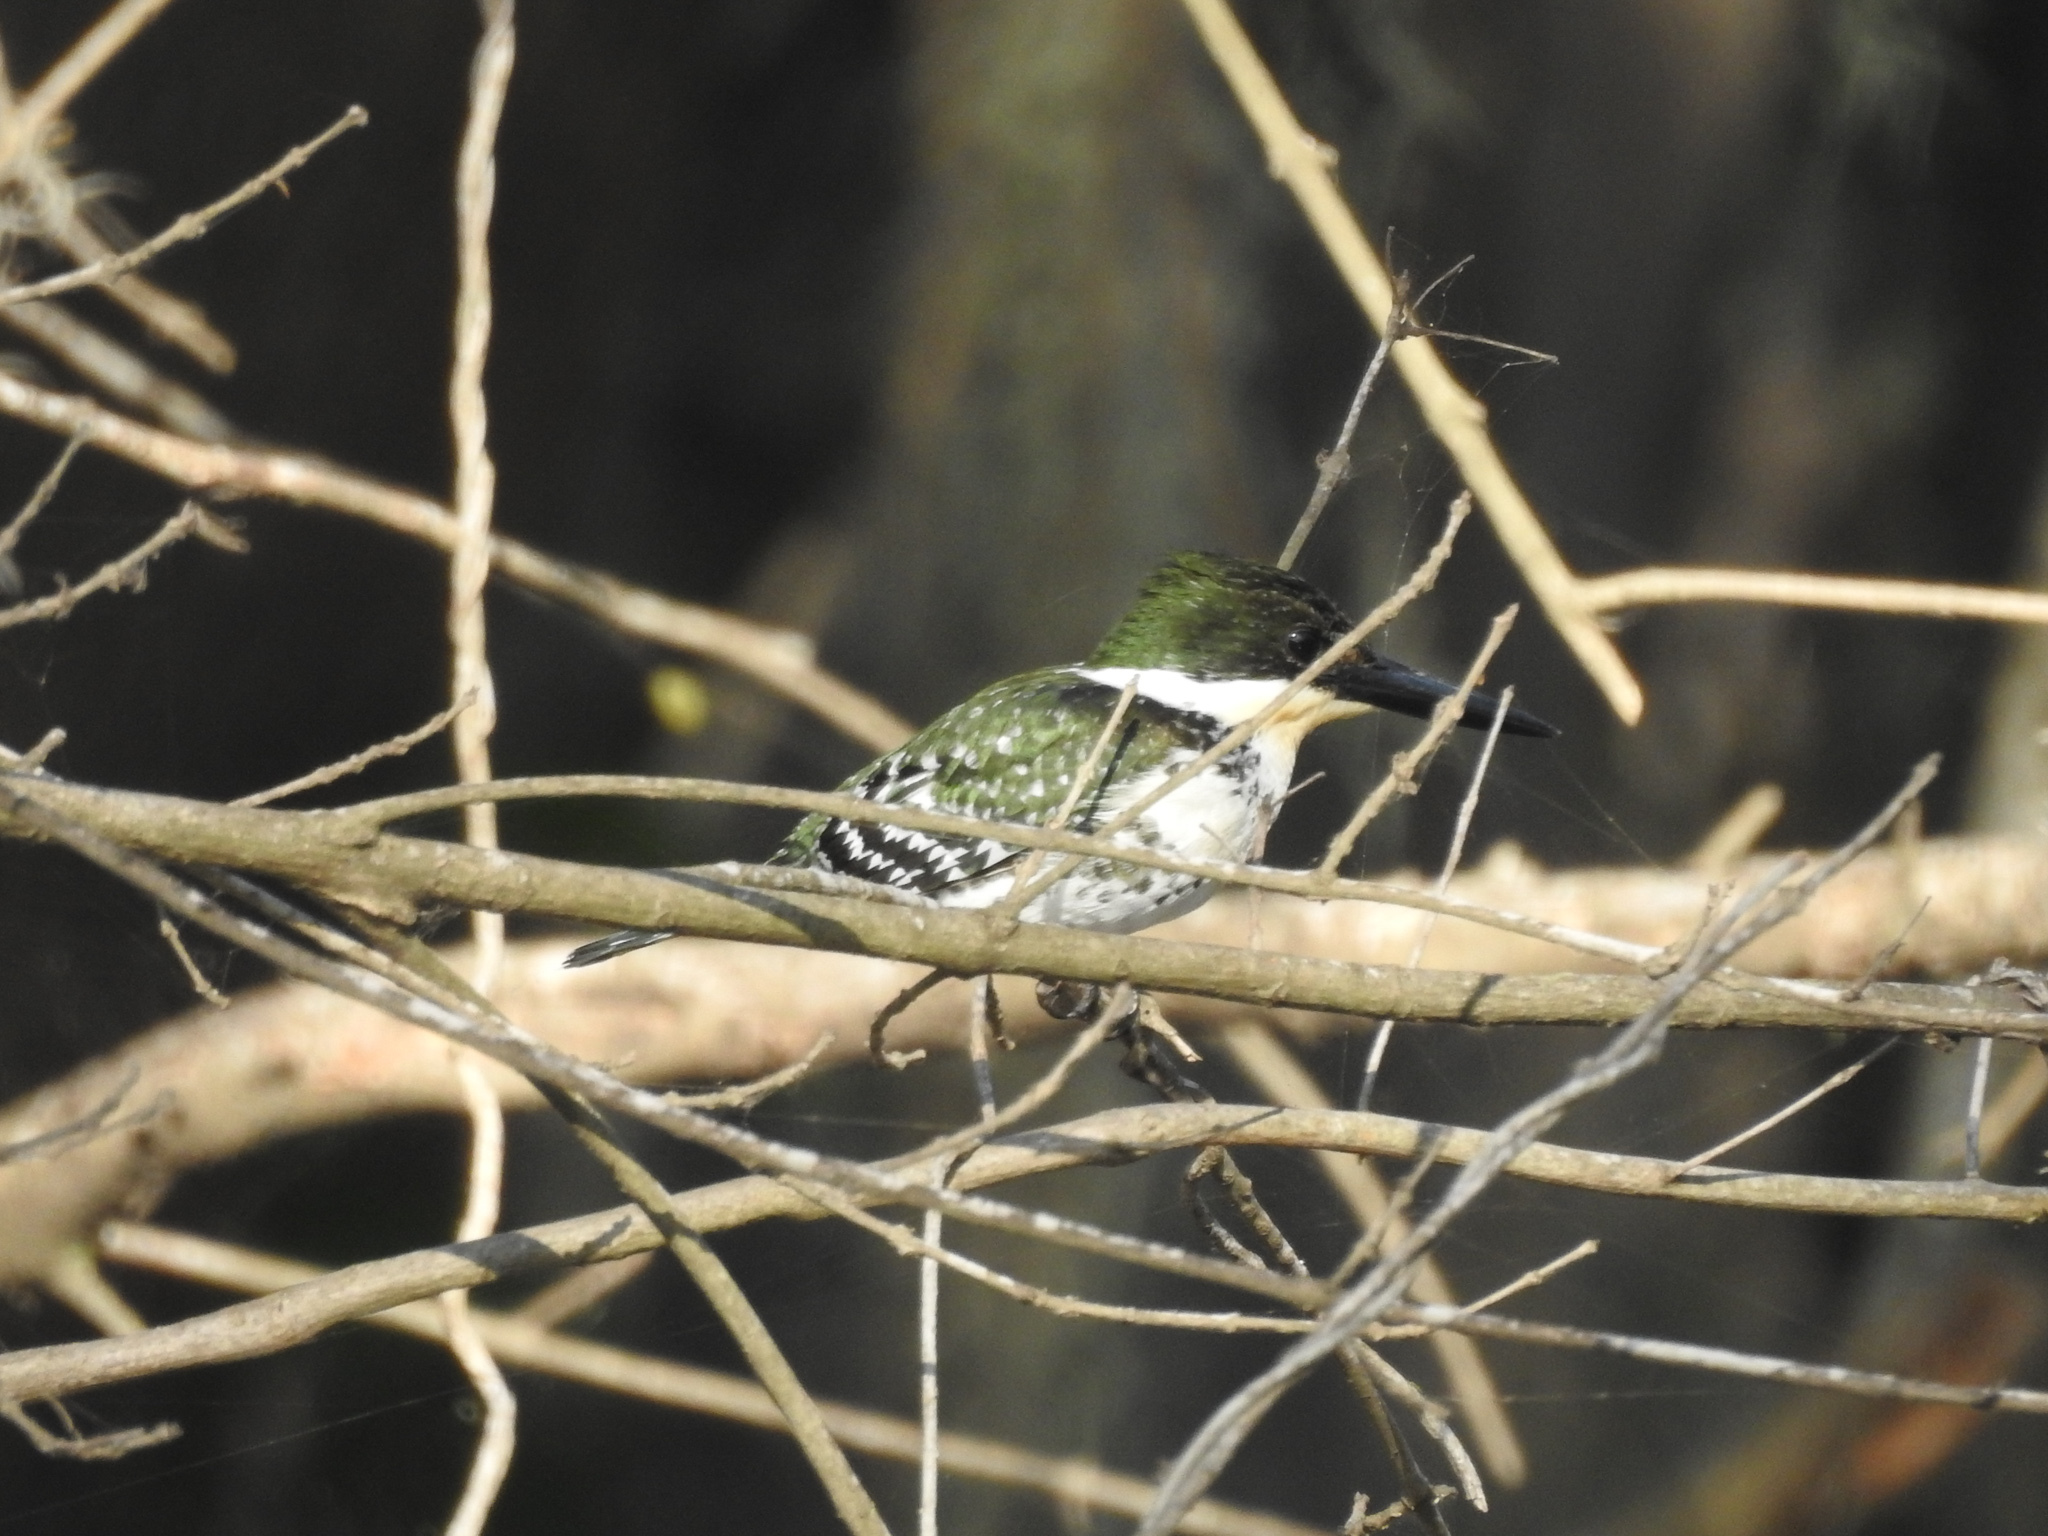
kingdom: Animalia
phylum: Chordata
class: Aves
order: Coraciiformes
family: Alcedinidae
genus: Chloroceryle
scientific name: Chloroceryle americana
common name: Green kingfisher
